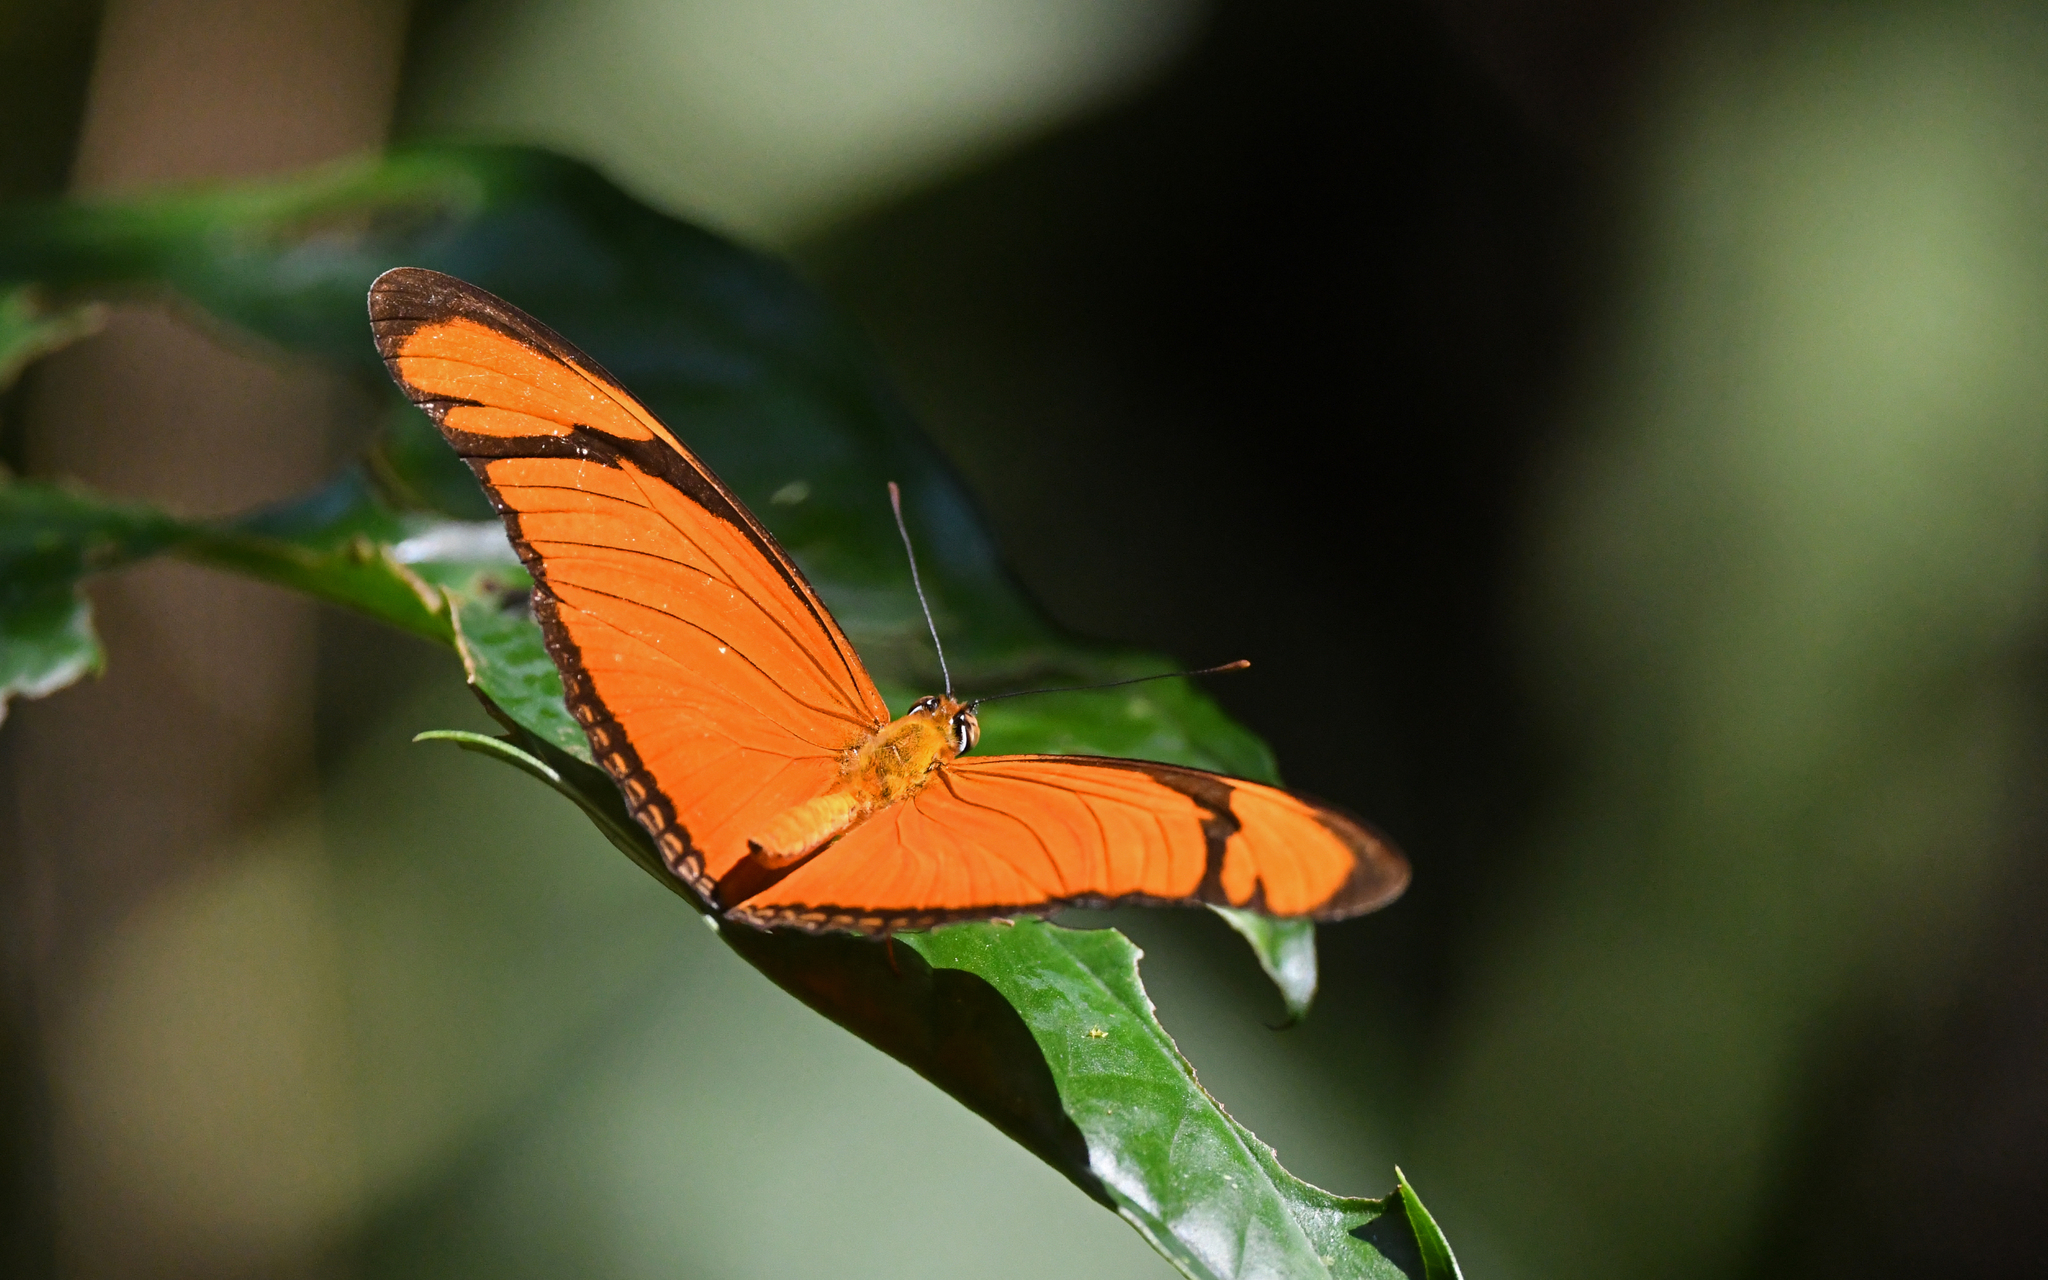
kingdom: Animalia
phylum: Arthropoda
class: Insecta
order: Lepidoptera
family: Nymphalidae
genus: Dryas
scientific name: Dryas iulia
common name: Flambeau
